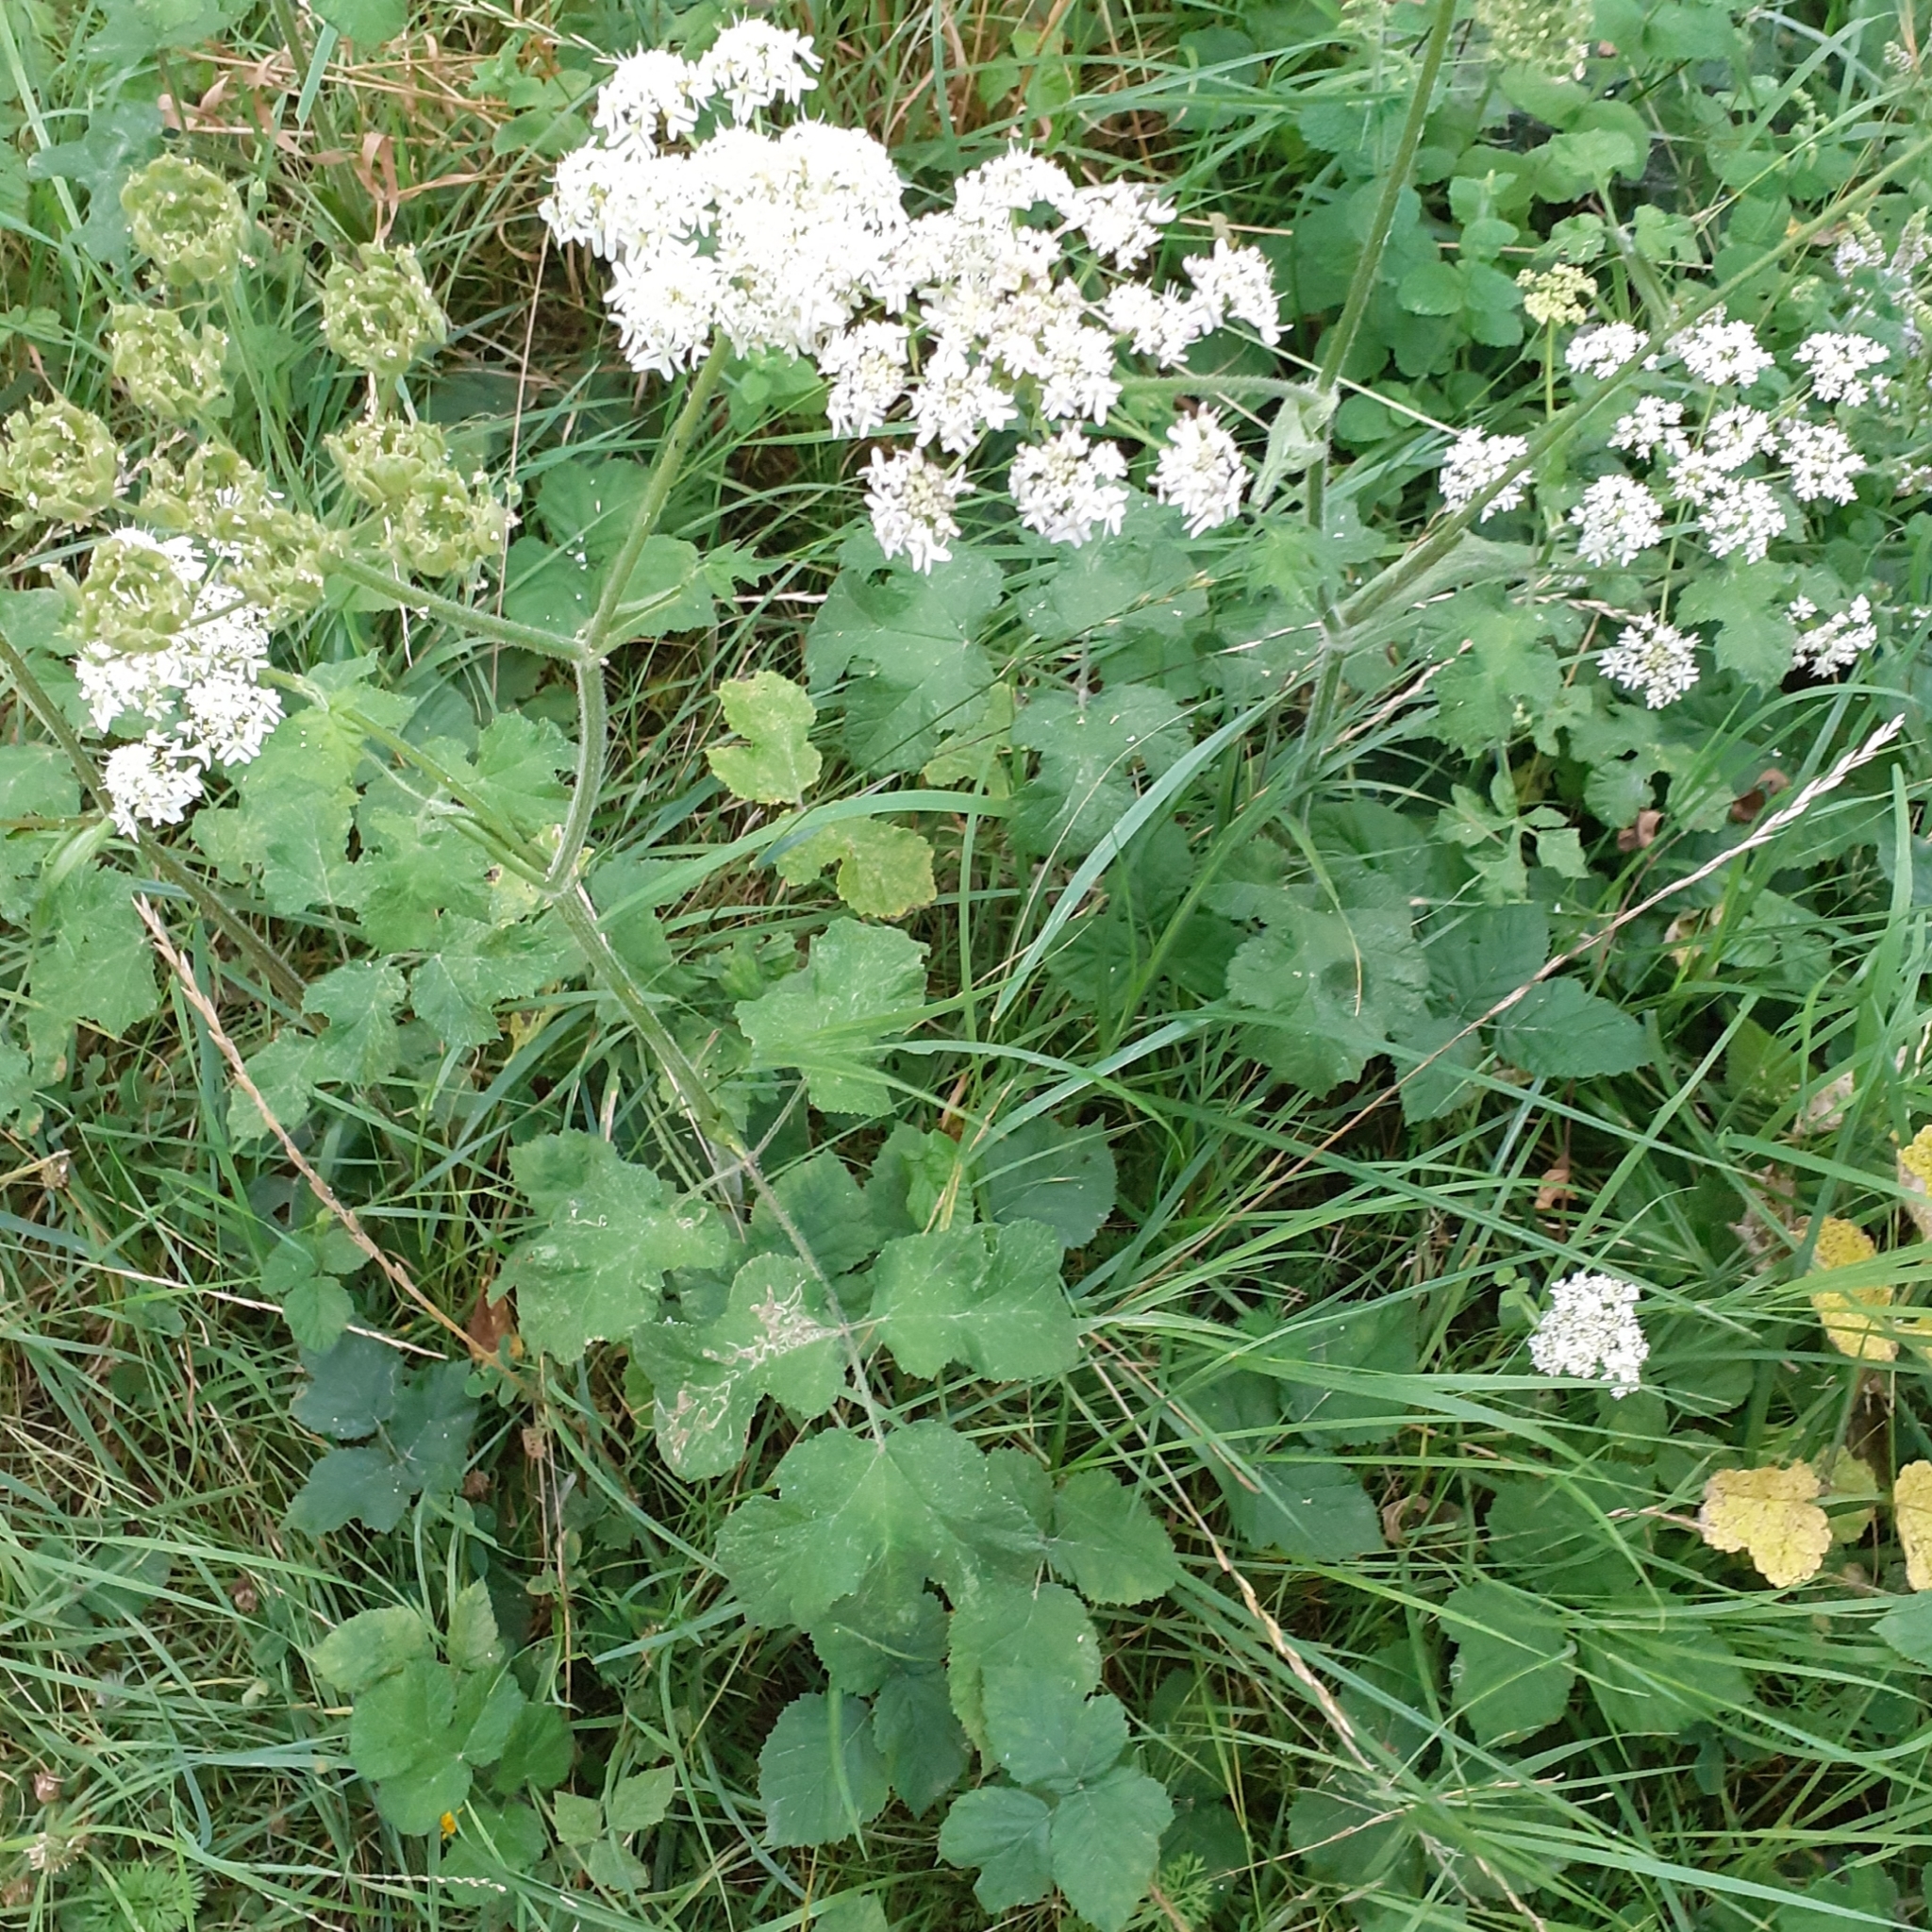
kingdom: Plantae
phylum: Tracheophyta
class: Magnoliopsida
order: Apiales
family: Apiaceae
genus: Heracleum
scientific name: Heracleum sphondylium
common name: Hogweed
